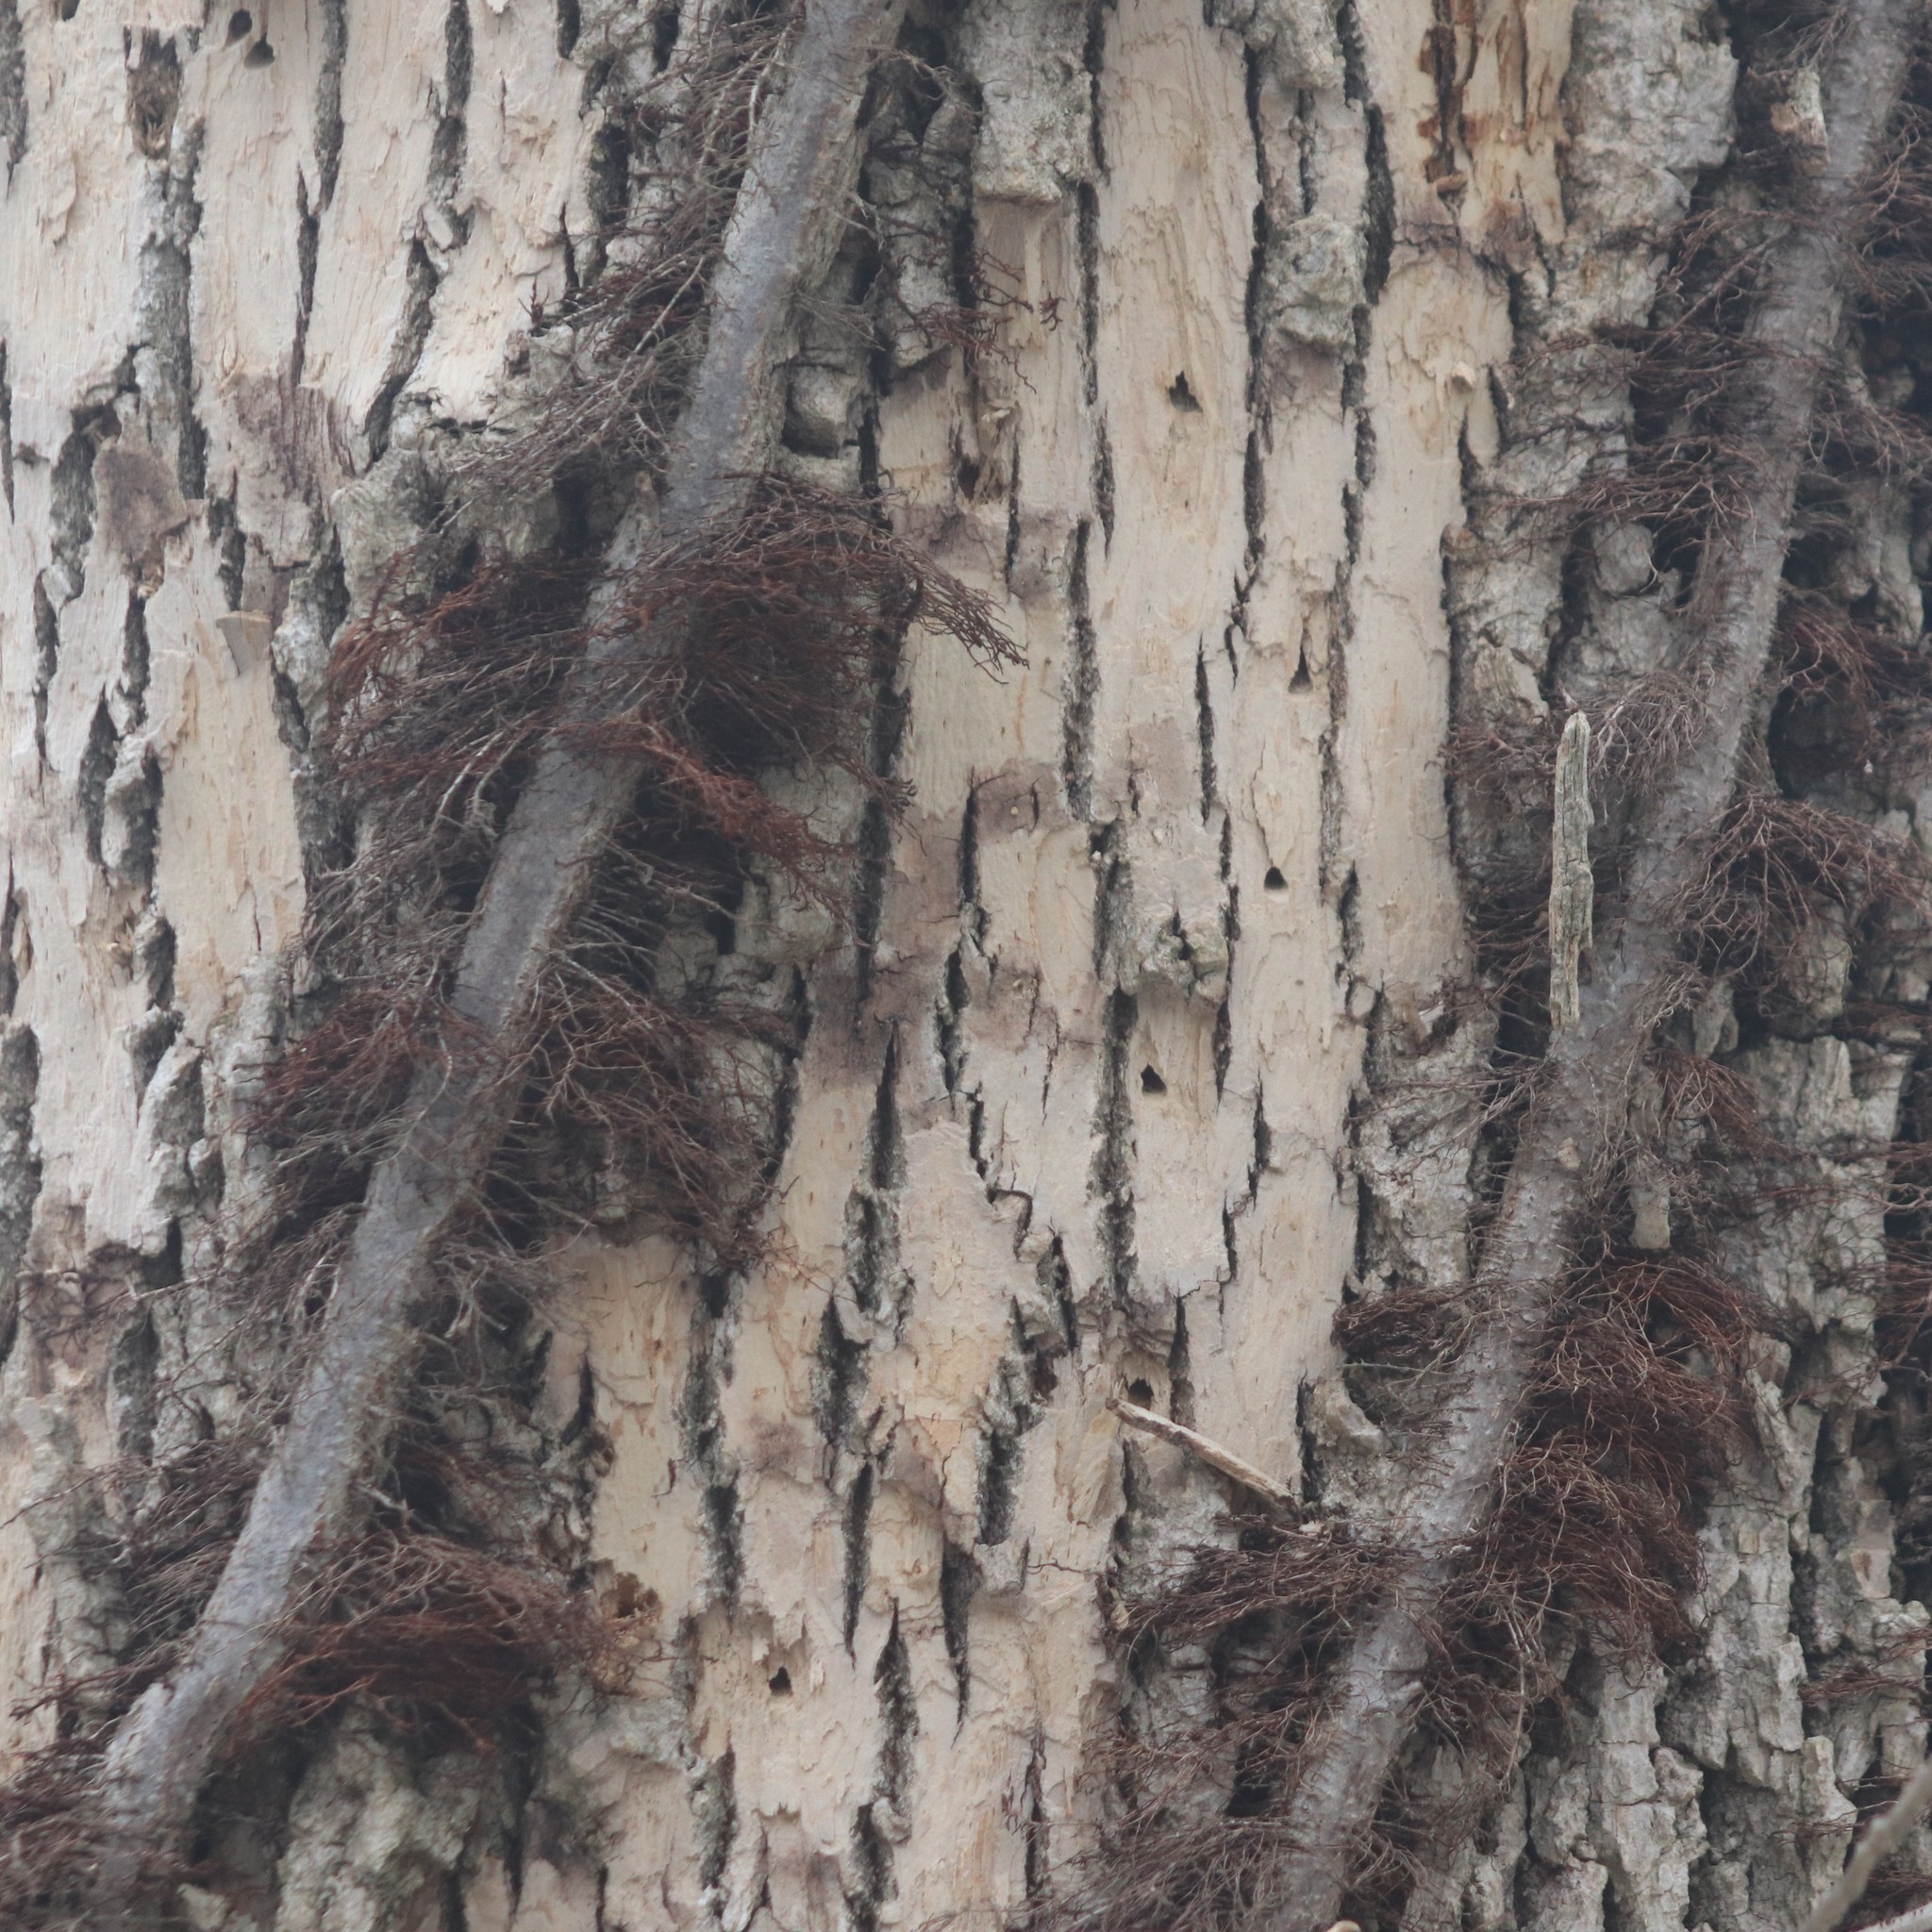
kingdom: Plantae
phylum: Tracheophyta
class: Magnoliopsida
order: Sapindales
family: Anacardiaceae
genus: Toxicodendron
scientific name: Toxicodendron radicans
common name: Poison ivy
